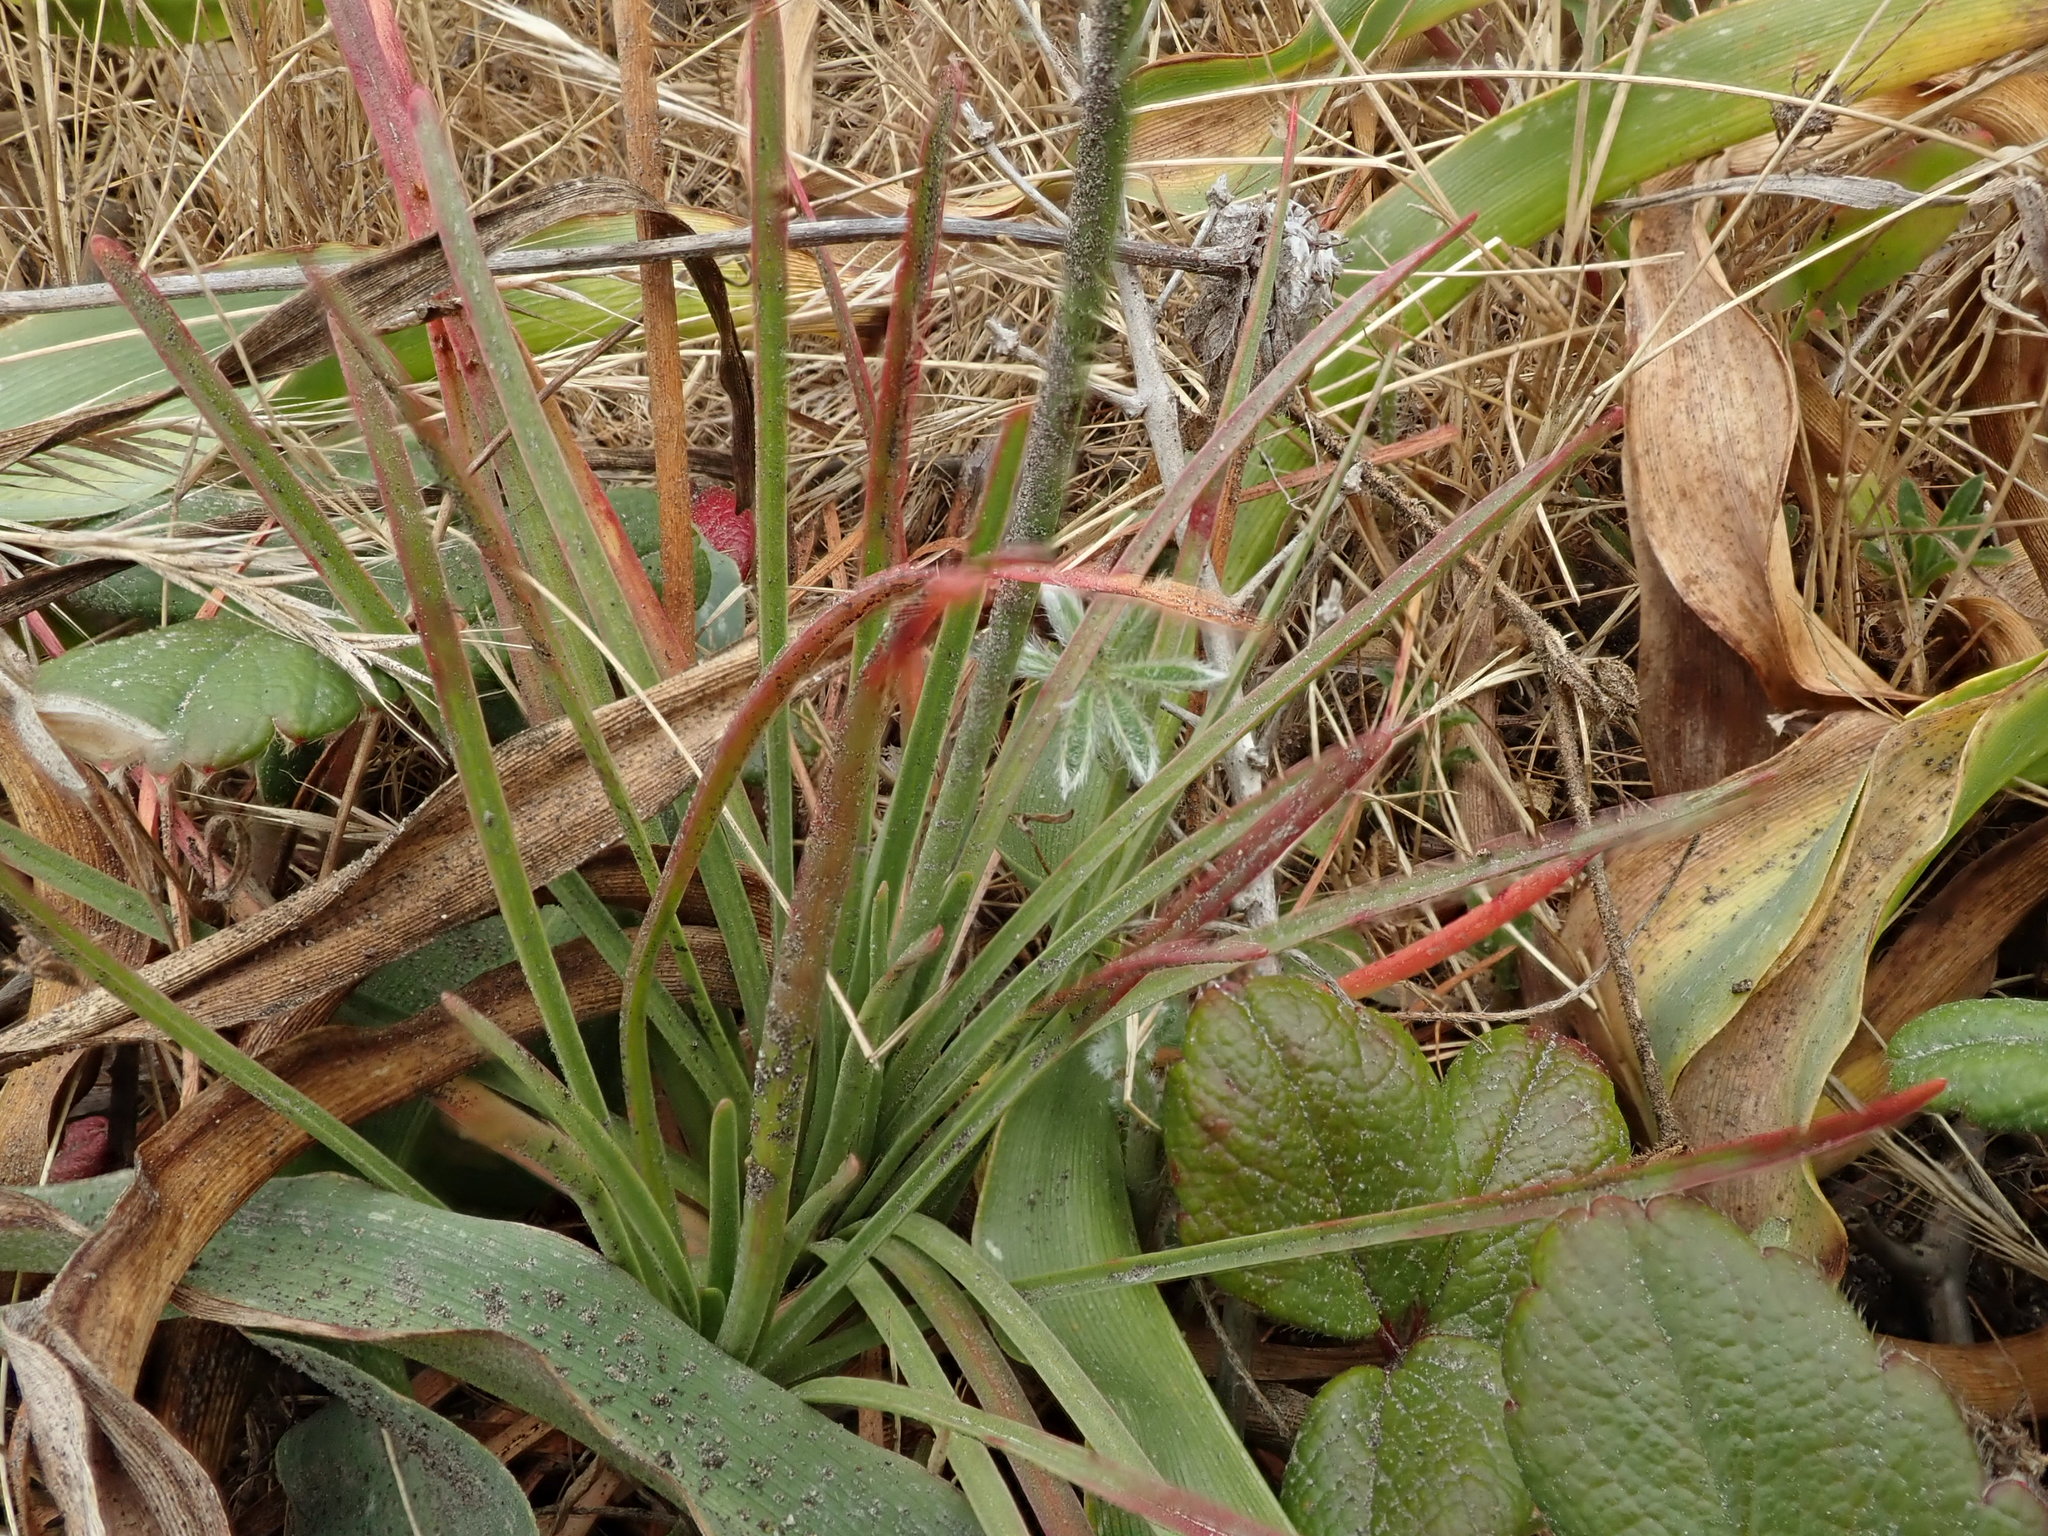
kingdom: Plantae
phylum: Tracheophyta
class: Magnoliopsida
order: Caryophyllales
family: Plumbaginaceae
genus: Armeria
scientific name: Armeria maritima
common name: Thrift
